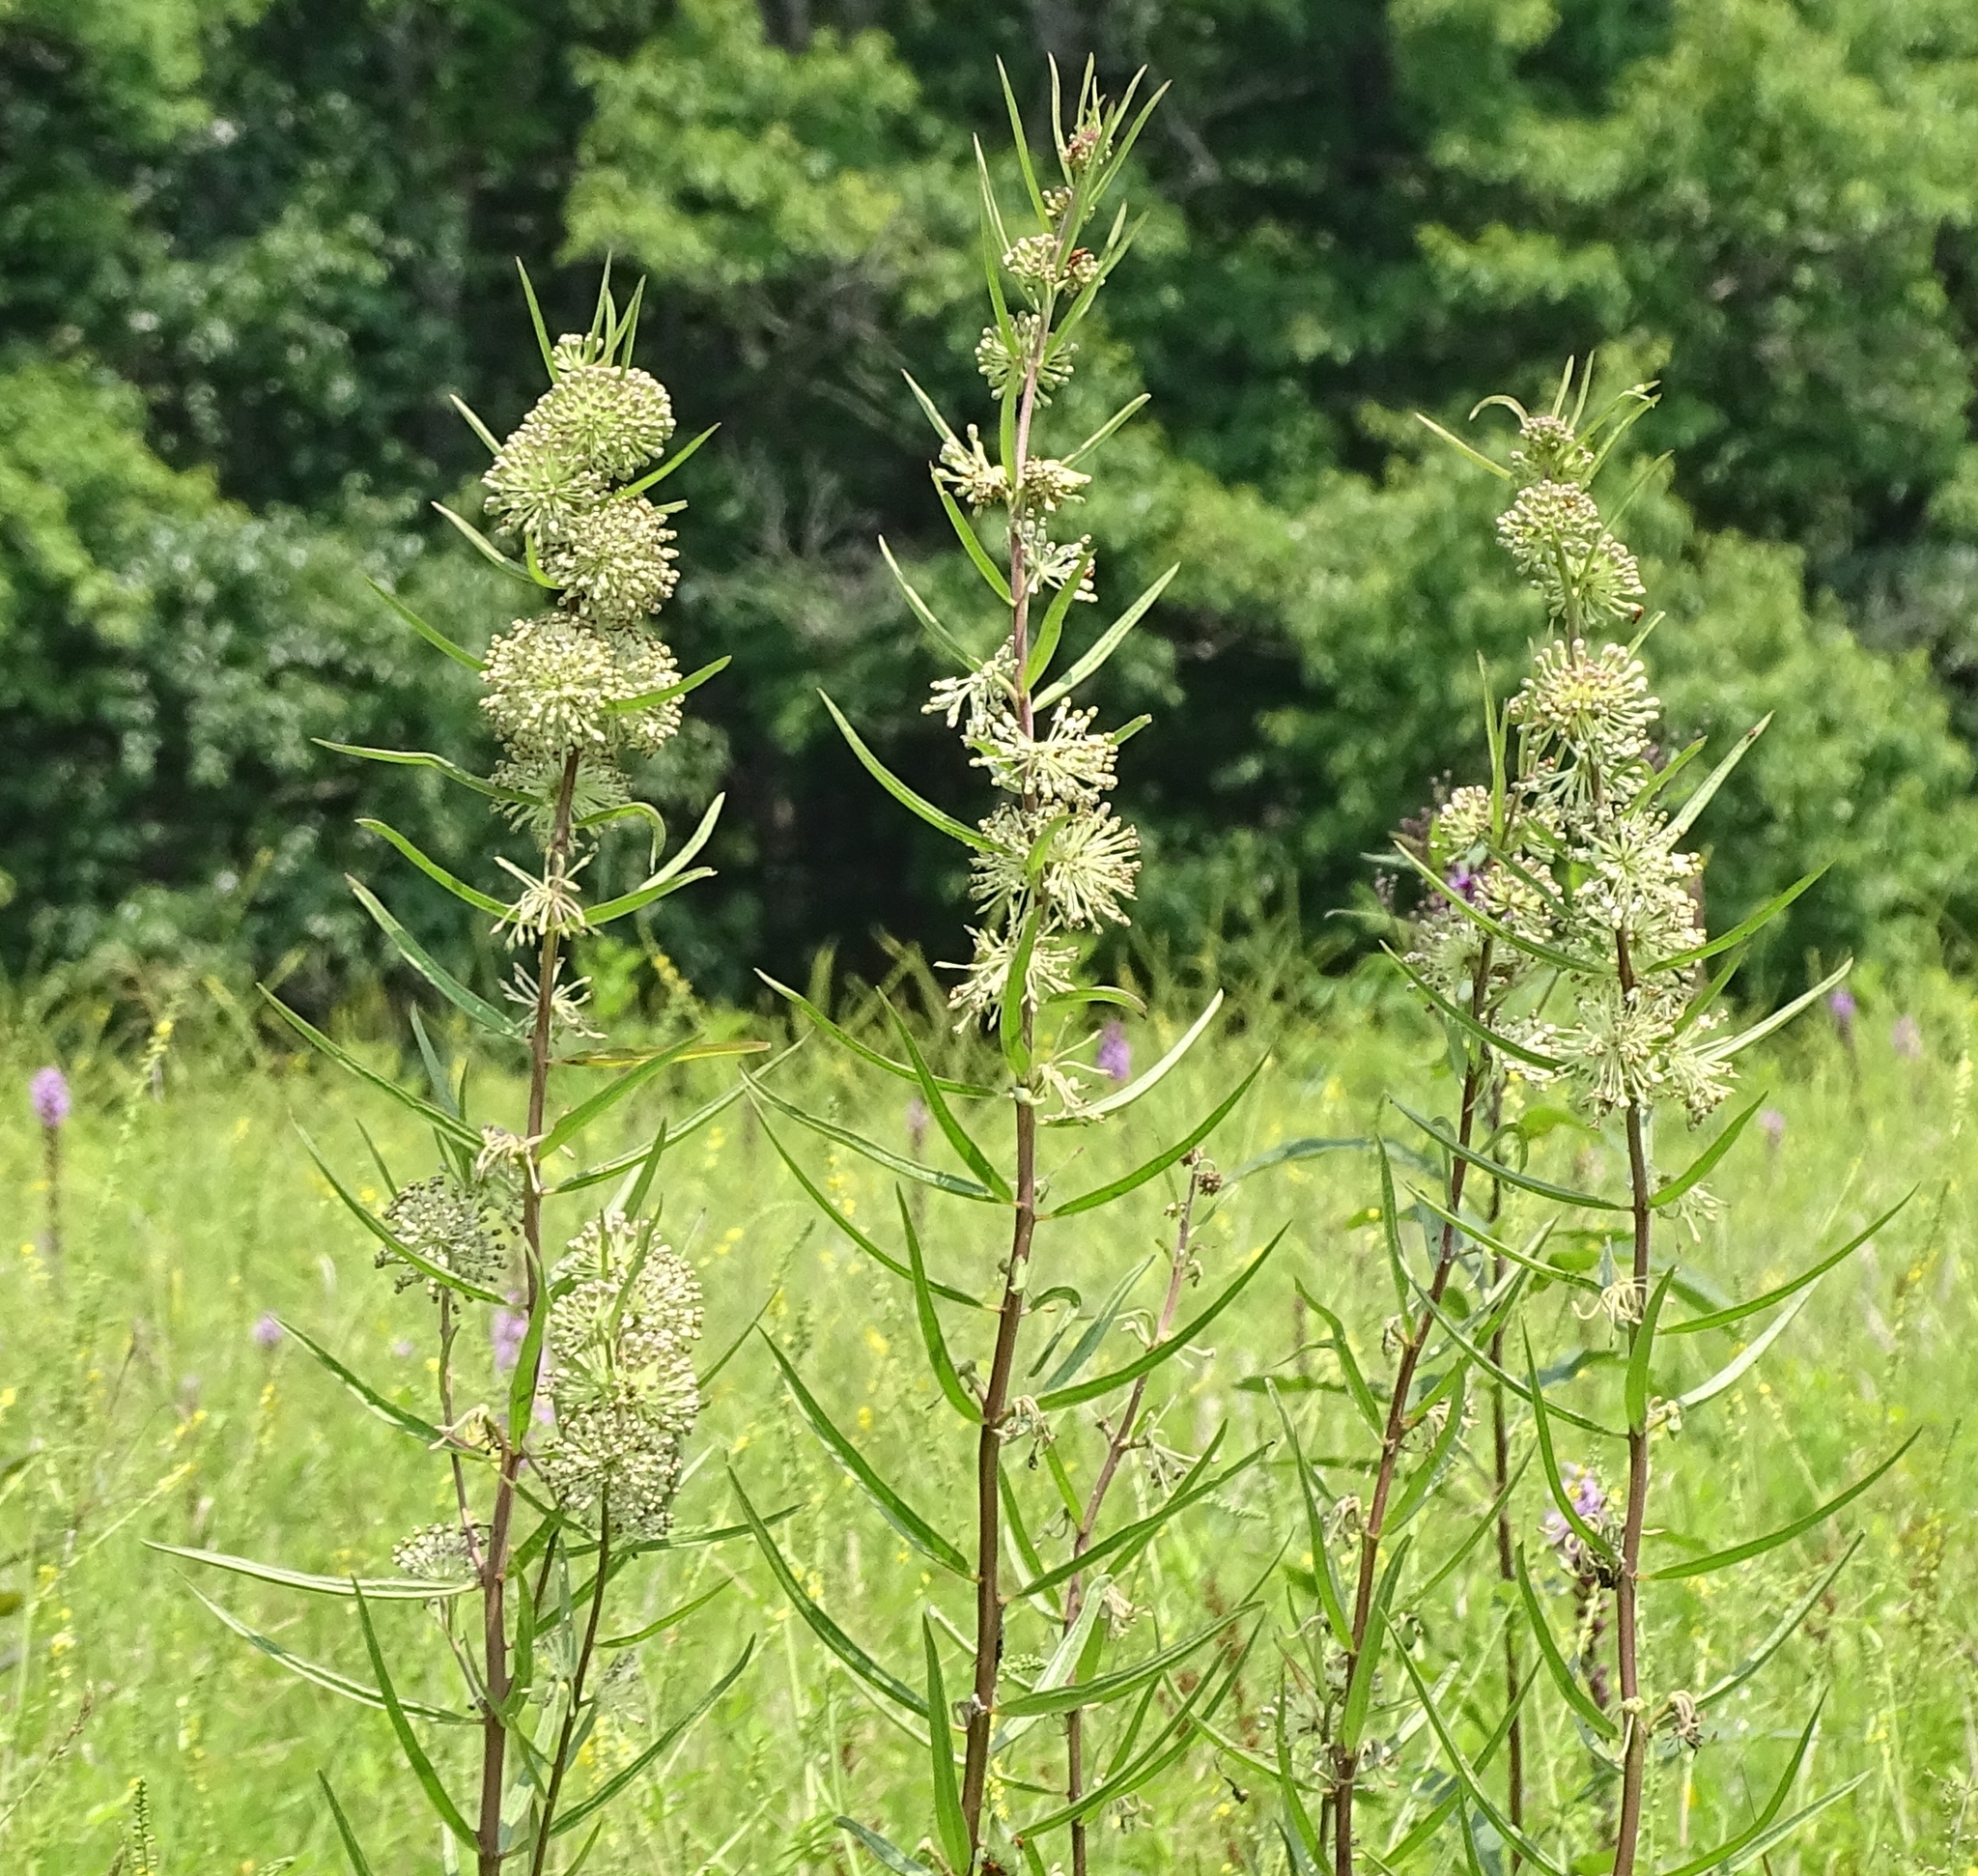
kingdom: Plantae
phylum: Tracheophyta
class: Magnoliopsida
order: Gentianales
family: Apocynaceae
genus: Asclepias
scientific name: Asclepias hirtella
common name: Prairie milkweed
